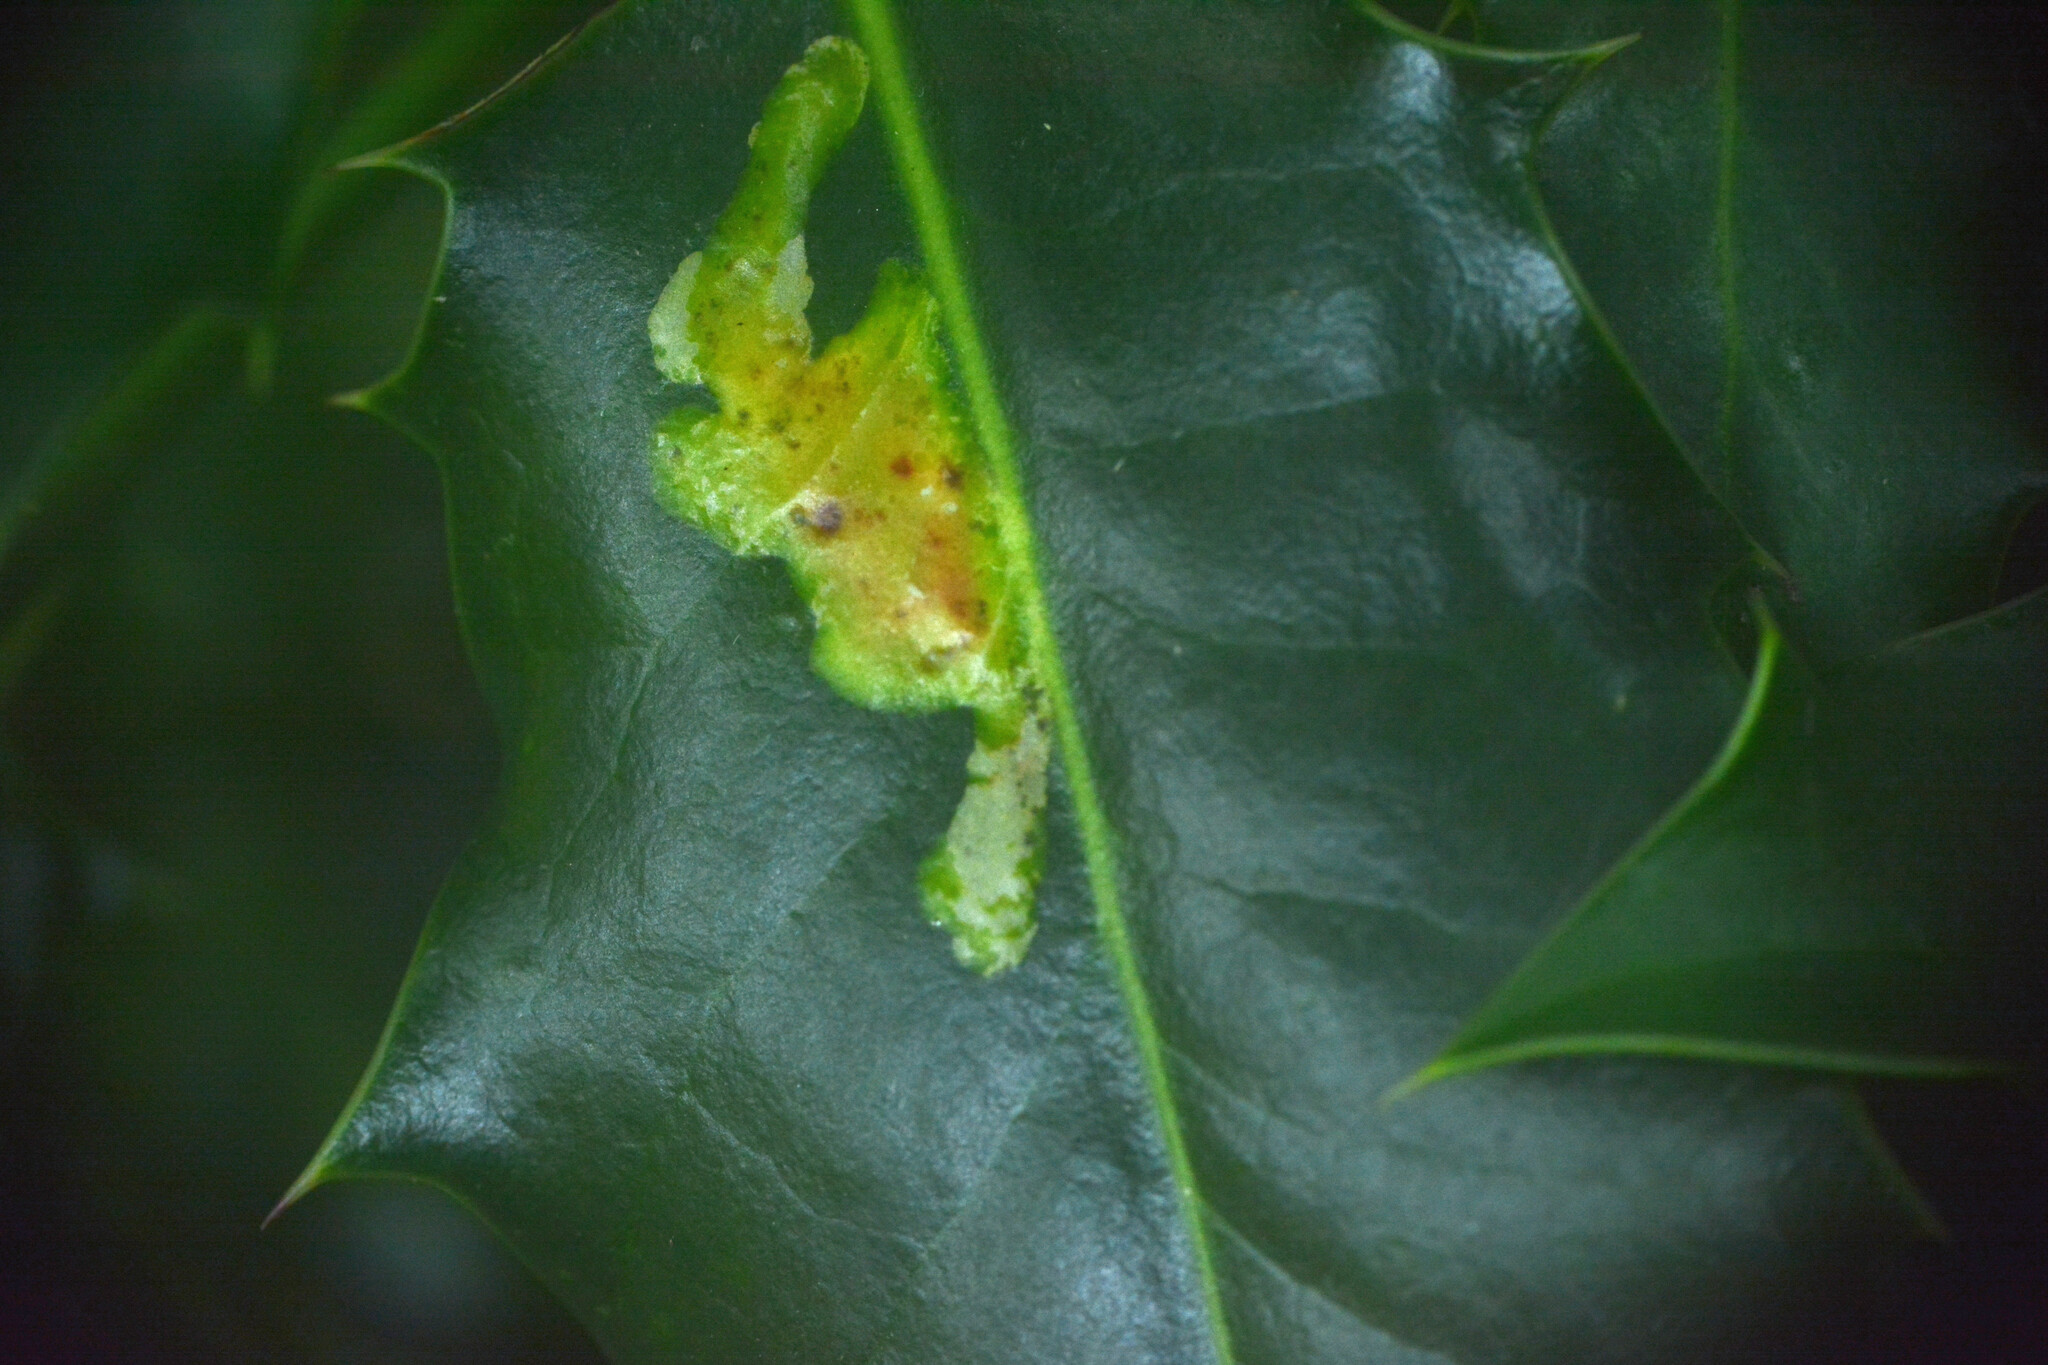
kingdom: Animalia
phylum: Arthropoda
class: Insecta
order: Diptera
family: Agromyzidae
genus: Phytomyza
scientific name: Phytomyza ilicis
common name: Holly leafminer
